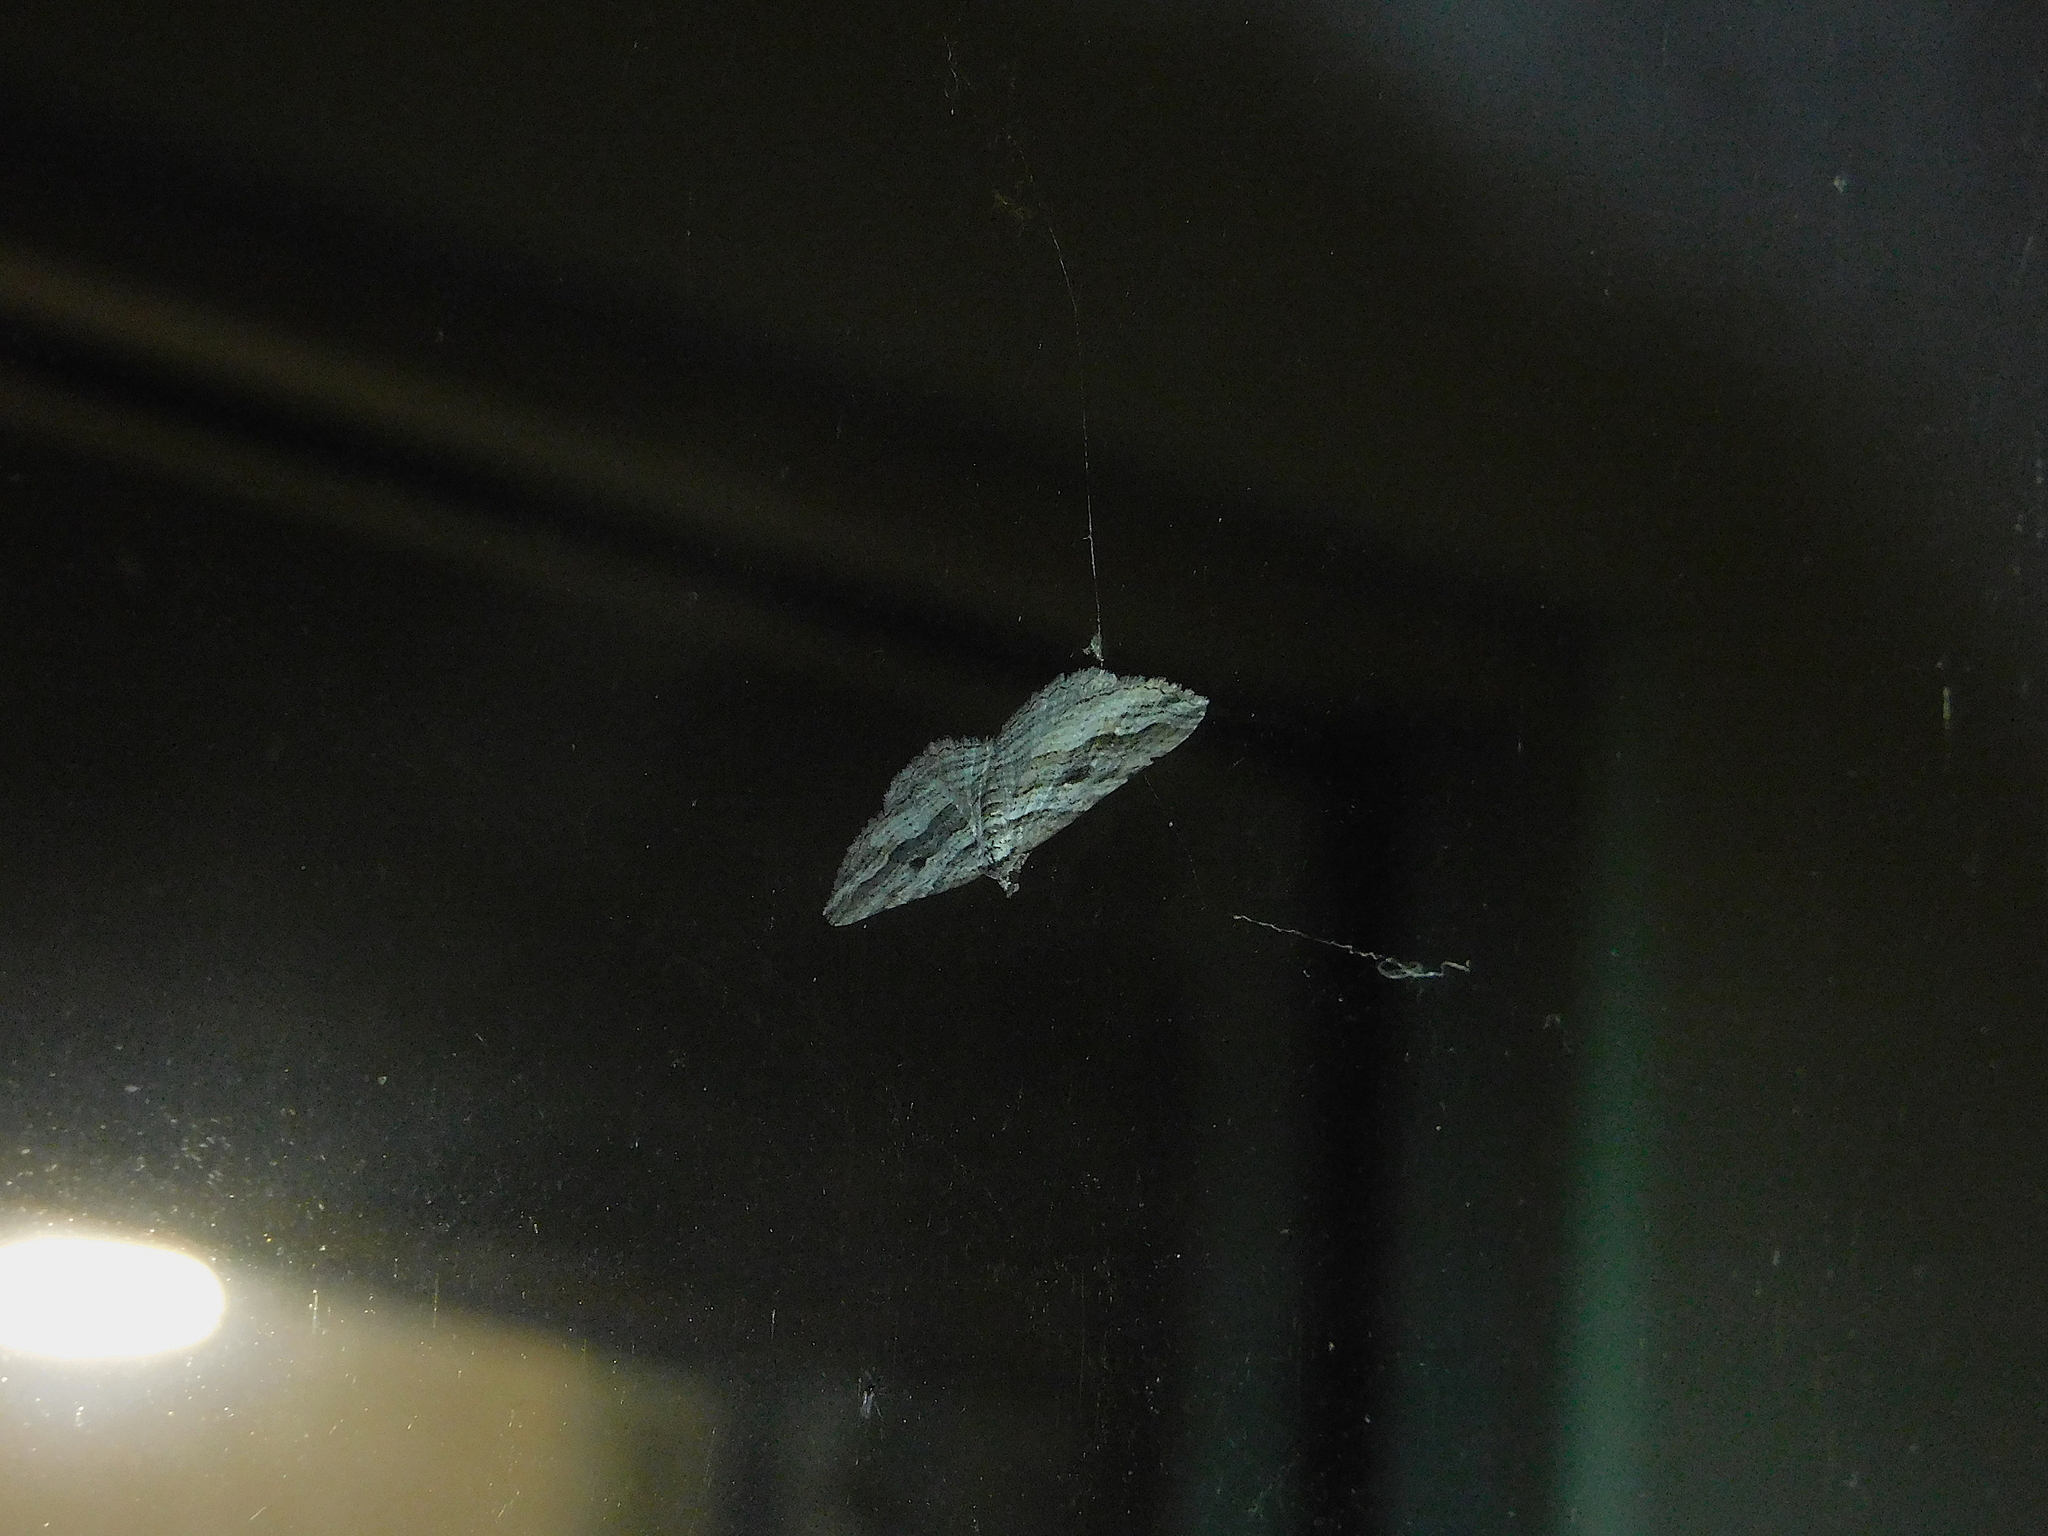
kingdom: Animalia
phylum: Arthropoda
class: Insecta
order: Lepidoptera
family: Geometridae
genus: Chrysolarentia
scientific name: Chrysolarentia severata
